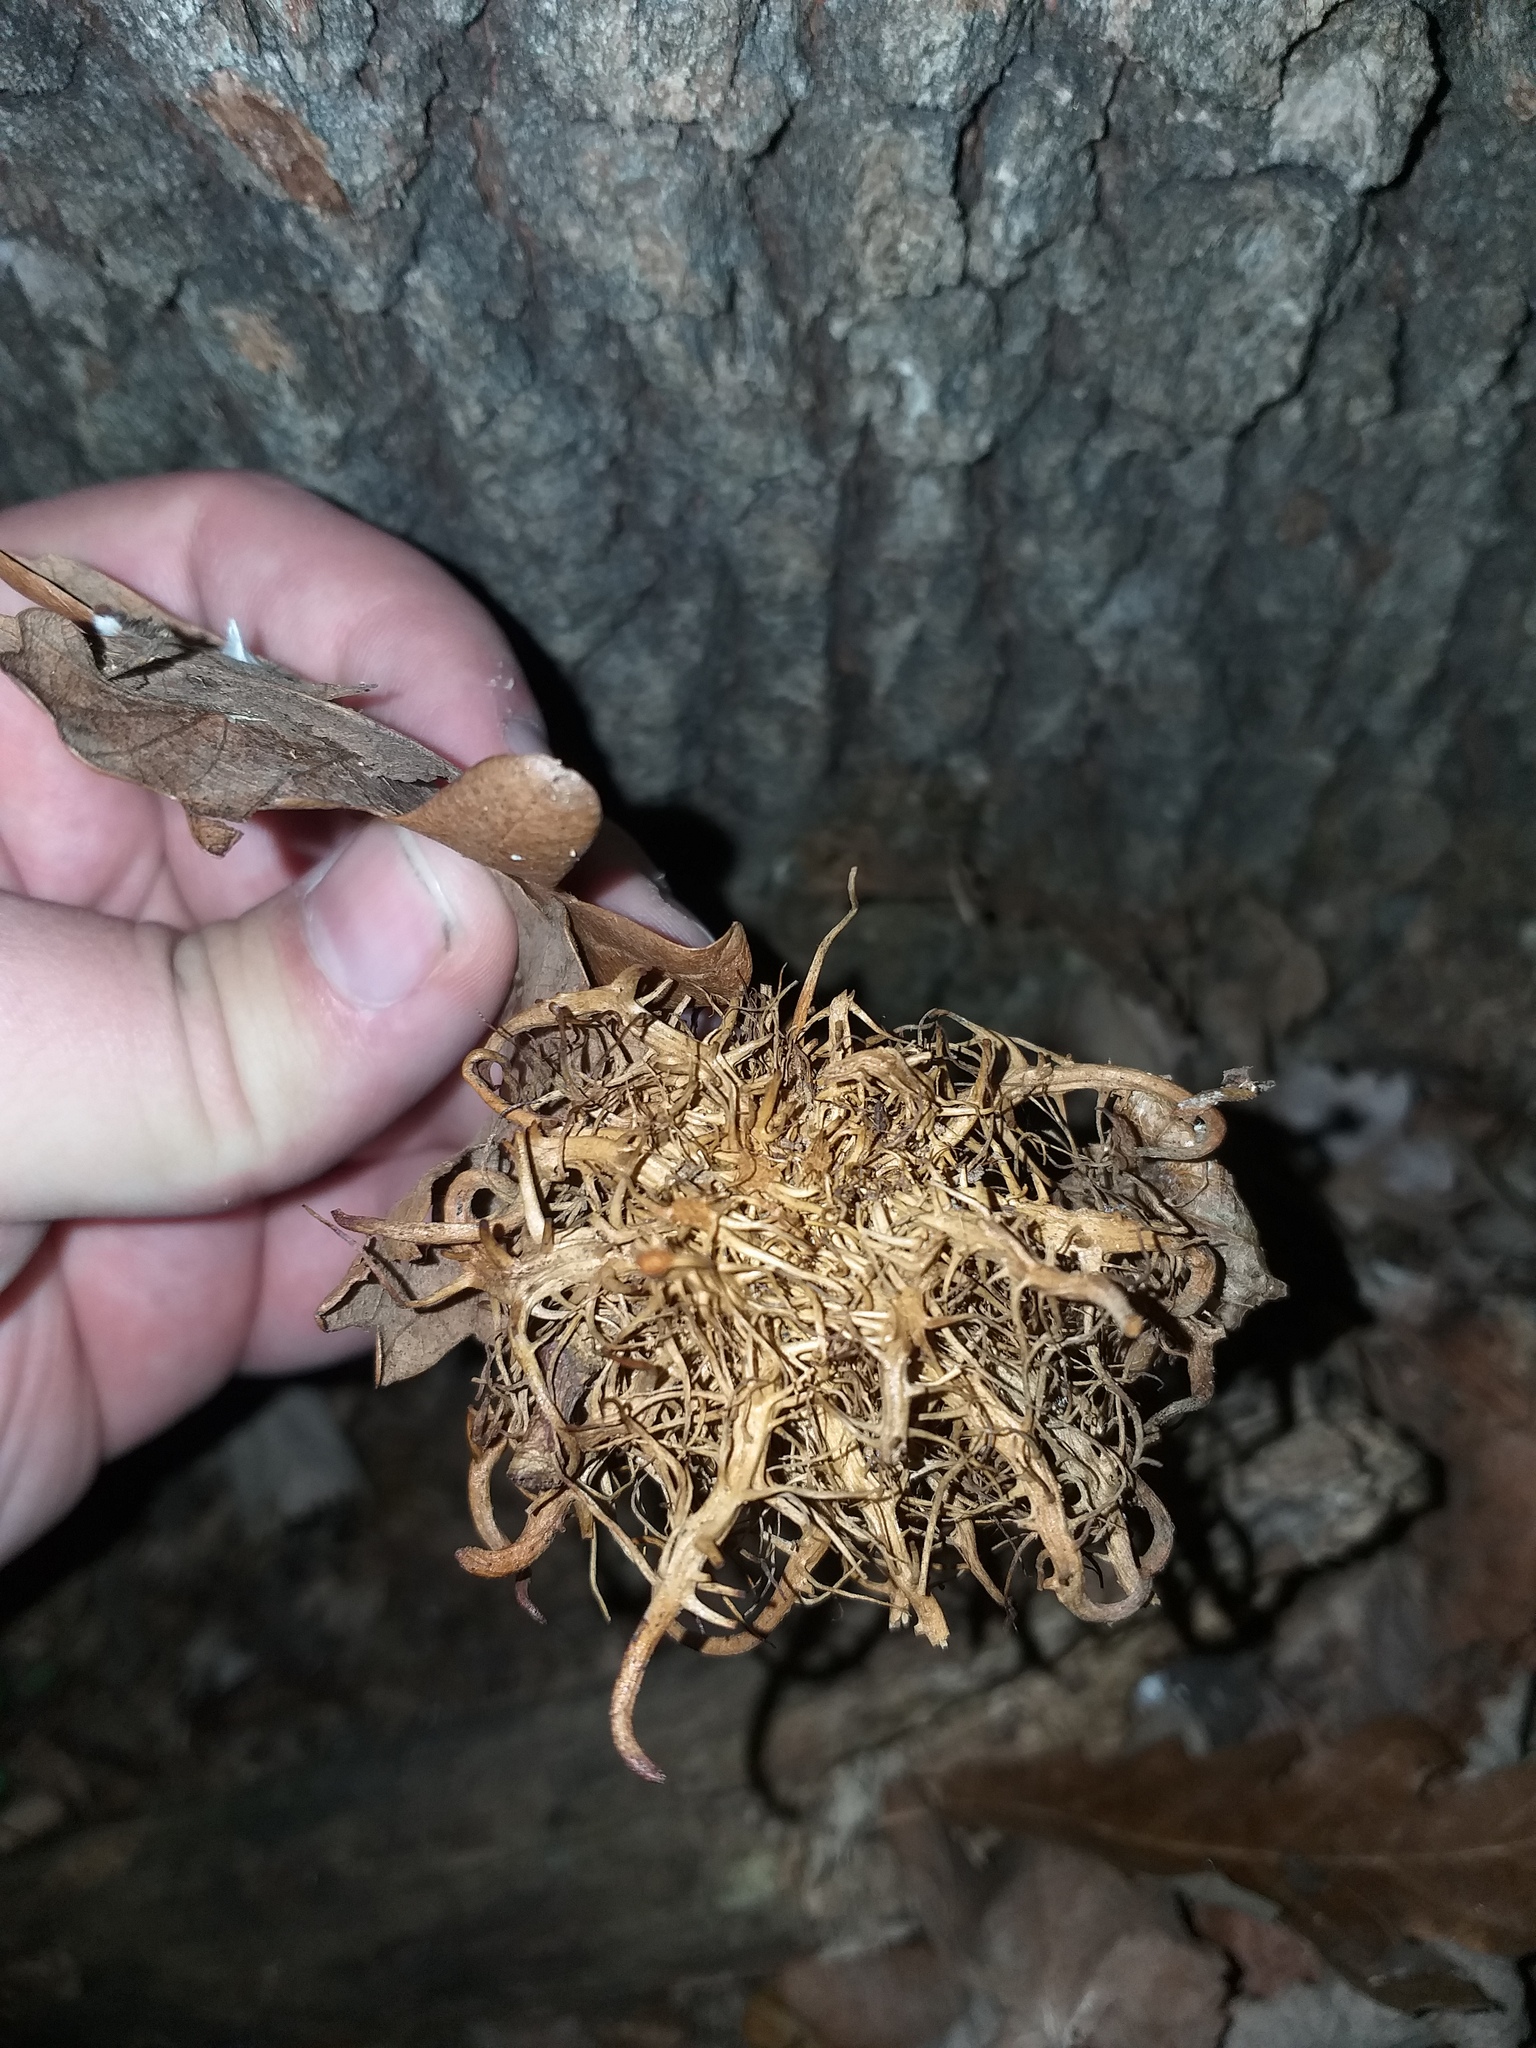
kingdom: Animalia
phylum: Arthropoda
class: Insecta
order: Hymenoptera
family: Cynipidae
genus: Andricus
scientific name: Andricus caputmedusae
